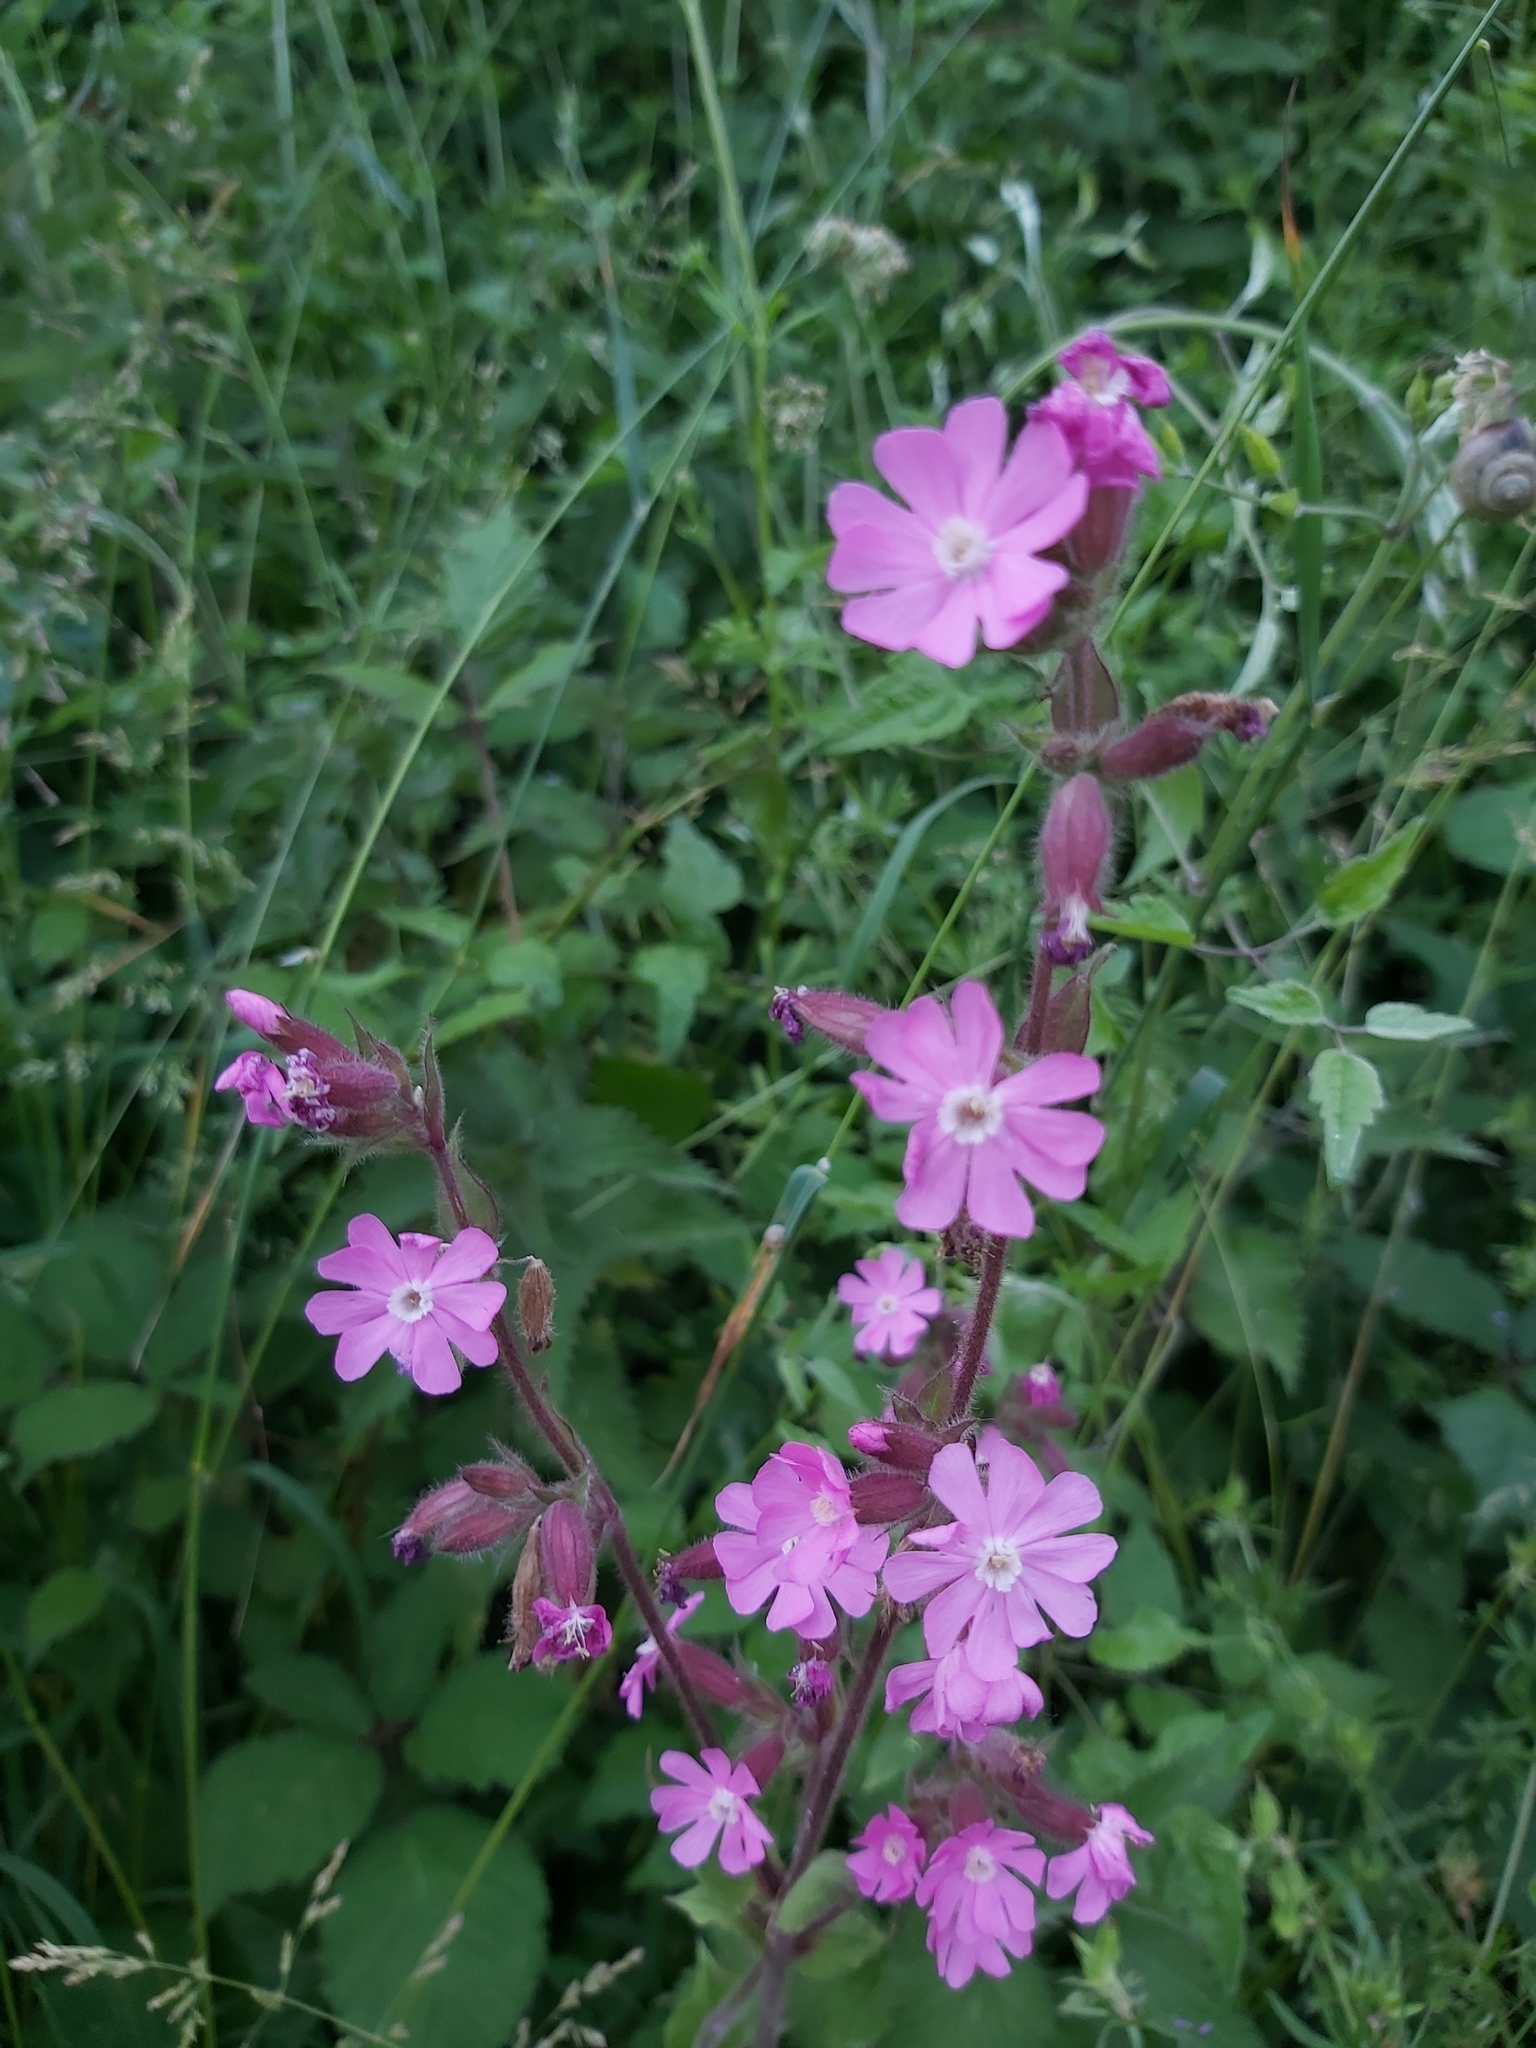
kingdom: Plantae
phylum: Tracheophyta
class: Magnoliopsida
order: Caryophyllales
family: Caryophyllaceae
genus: Silene
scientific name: Silene dioica
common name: Red campion
